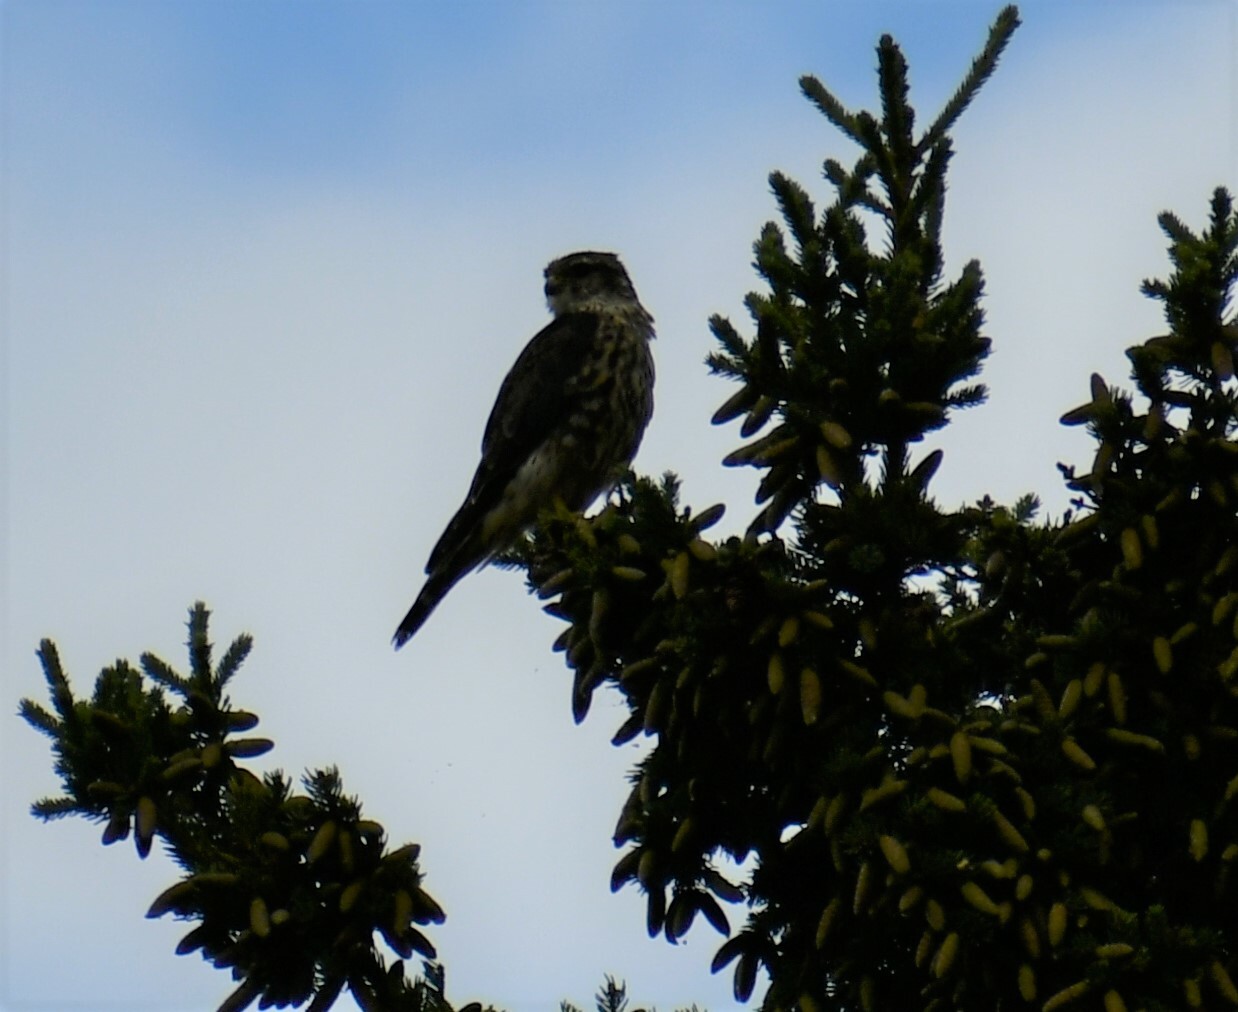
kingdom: Animalia
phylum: Chordata
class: Aves
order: Falconiformes
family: Falconidae
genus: Falco
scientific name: Falco columbarius
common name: Merlin
